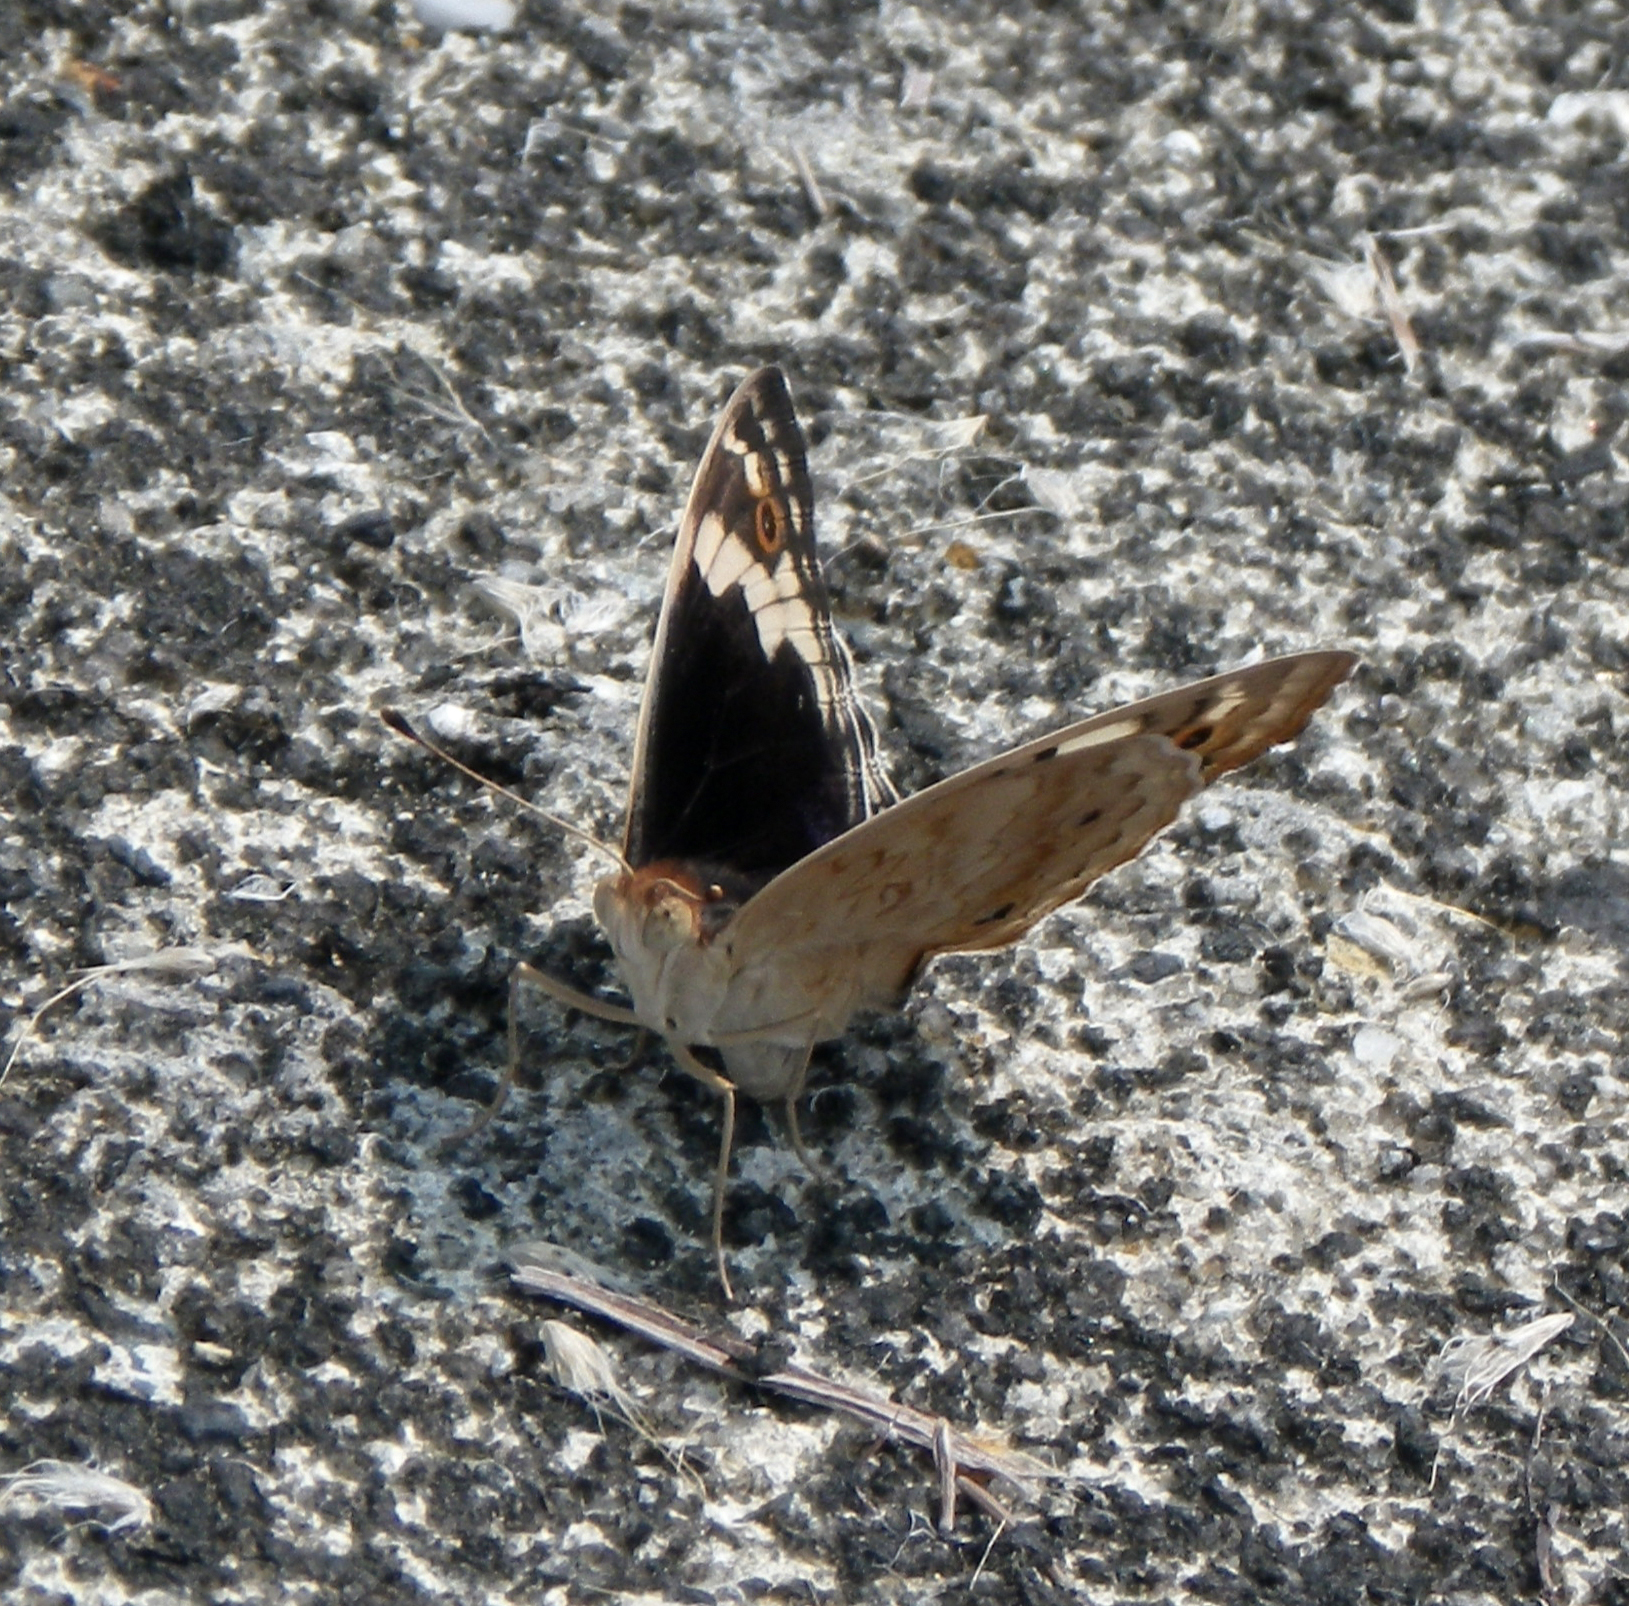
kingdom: Animalia
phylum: Arthropoda
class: Insecta
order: Lepidoptera
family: Nymphalidae
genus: Junonia
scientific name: Junonia orithya
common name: Blue pansy
